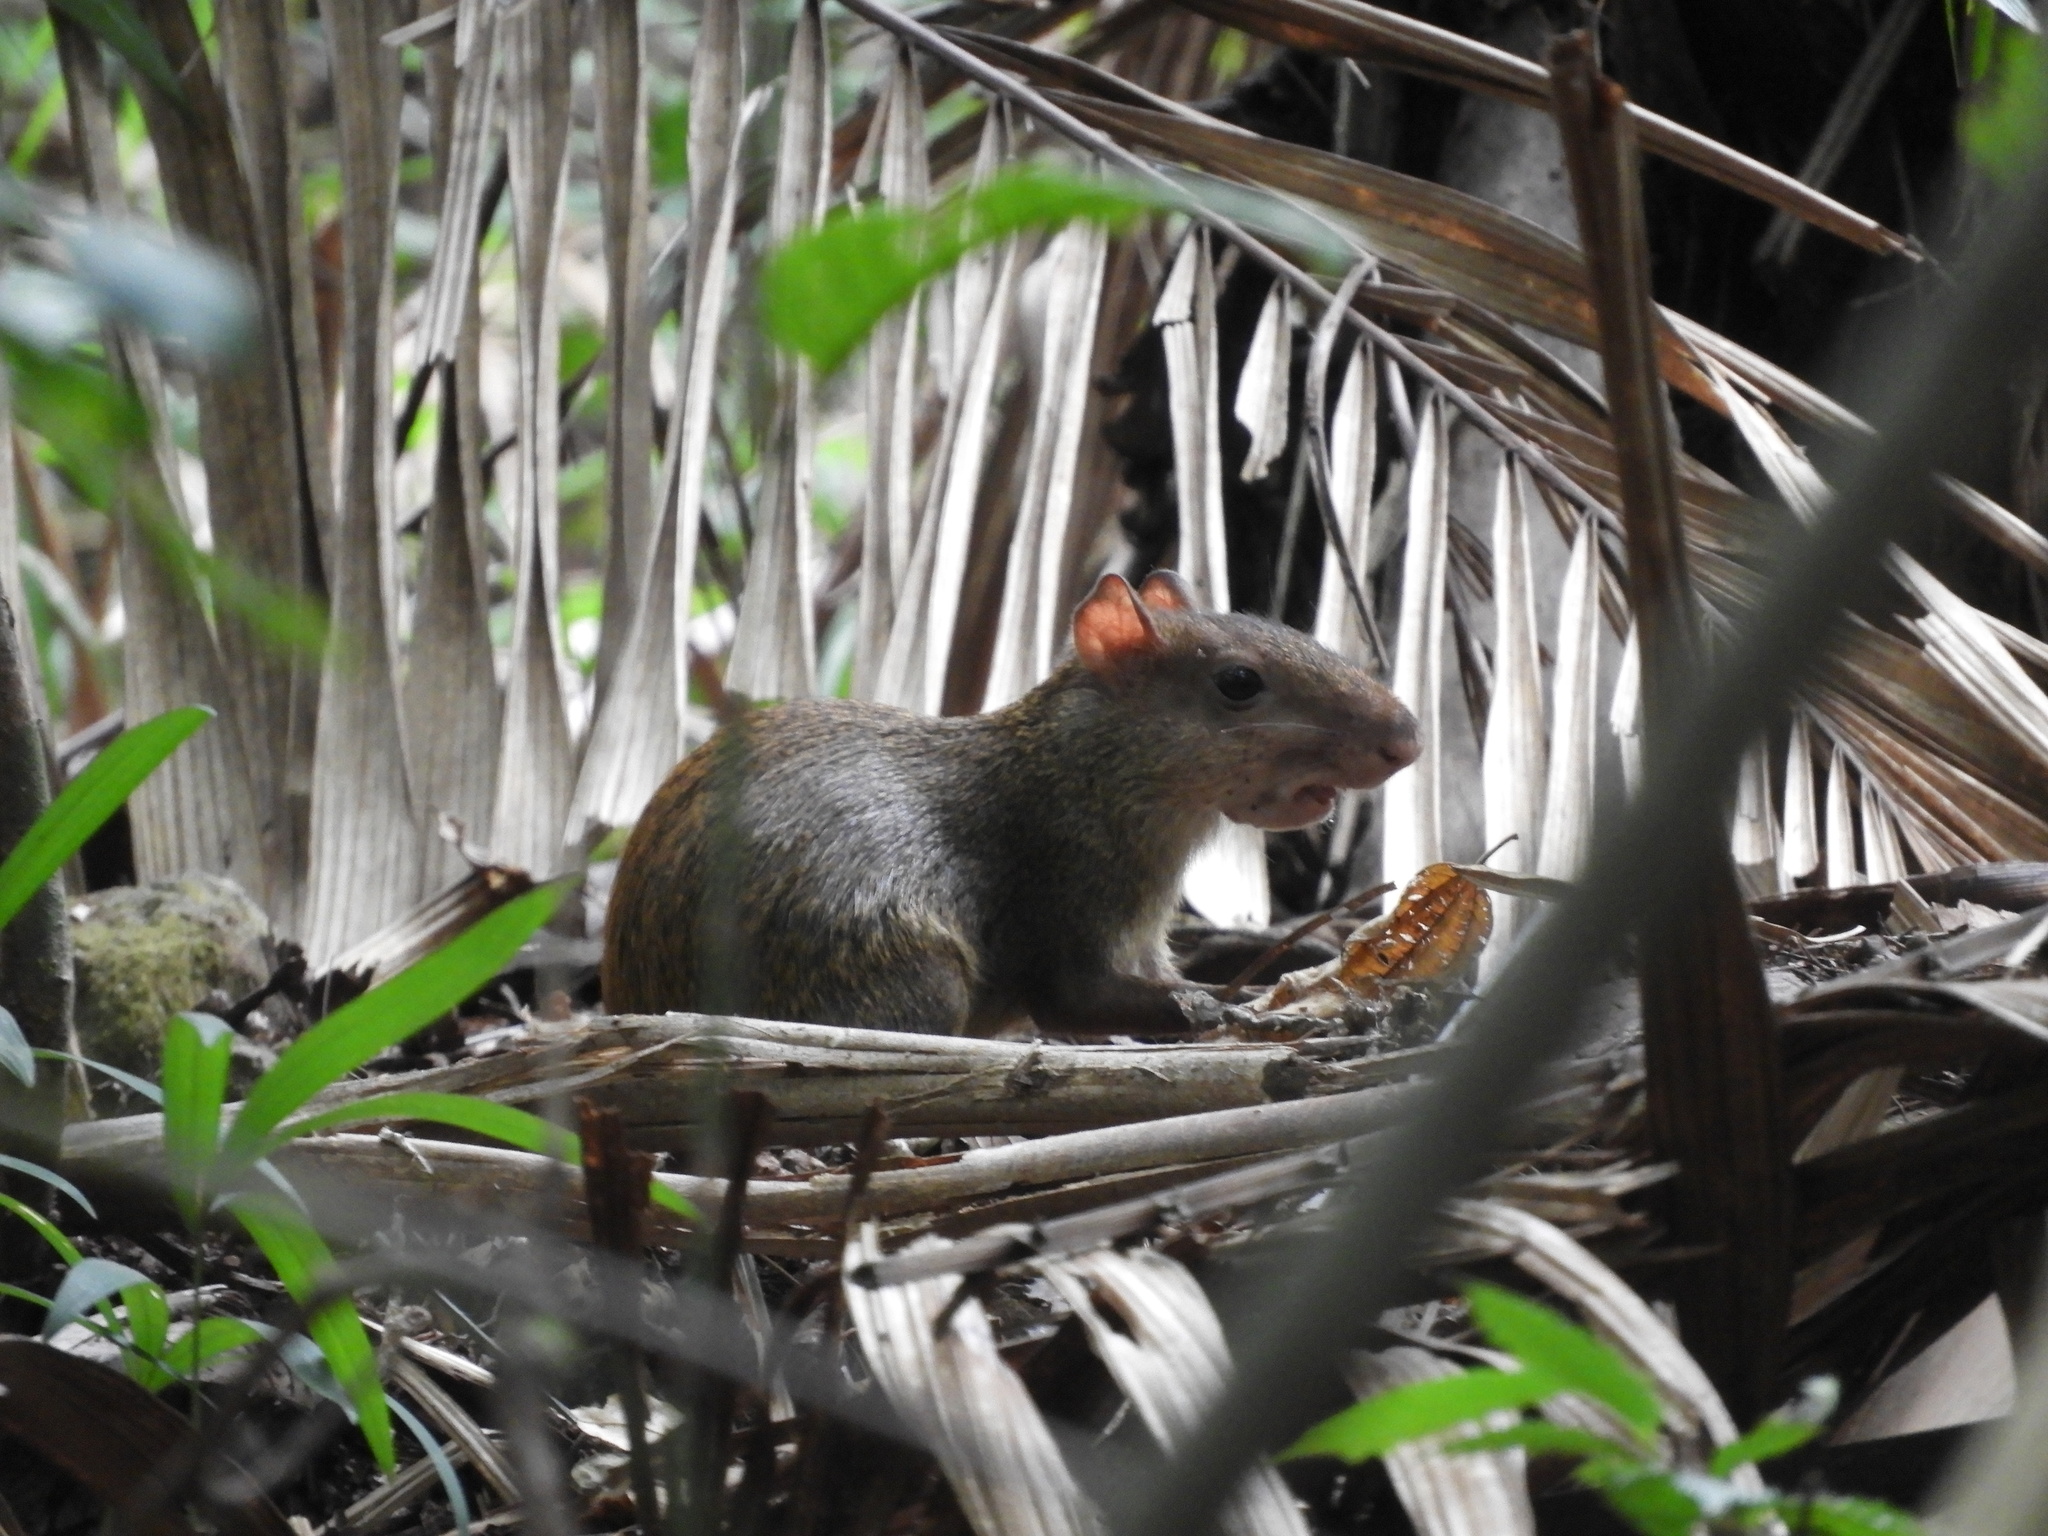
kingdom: Animalia
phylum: Chordata
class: Mammalia
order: Rodentia
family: Dasyproctidae
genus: Dasyprocta
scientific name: Dasyprocta punctata
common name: Central american agouti
